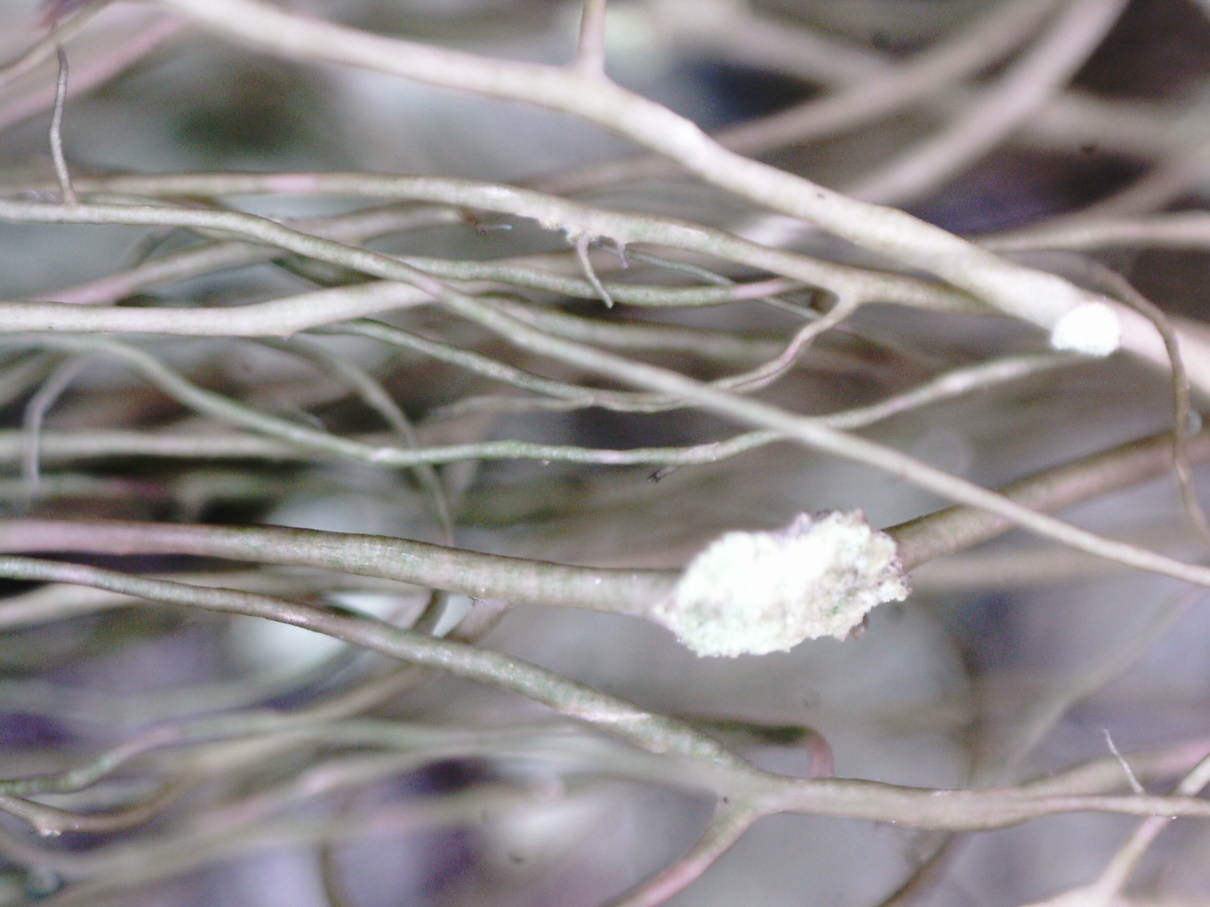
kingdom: Fungi
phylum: Ascomycota
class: Lecanoromycetes
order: Lecanorales
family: Parmeliaceae
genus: Bryoria
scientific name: Bryoria fuscescens
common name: Pale-footed horsehair lichen
